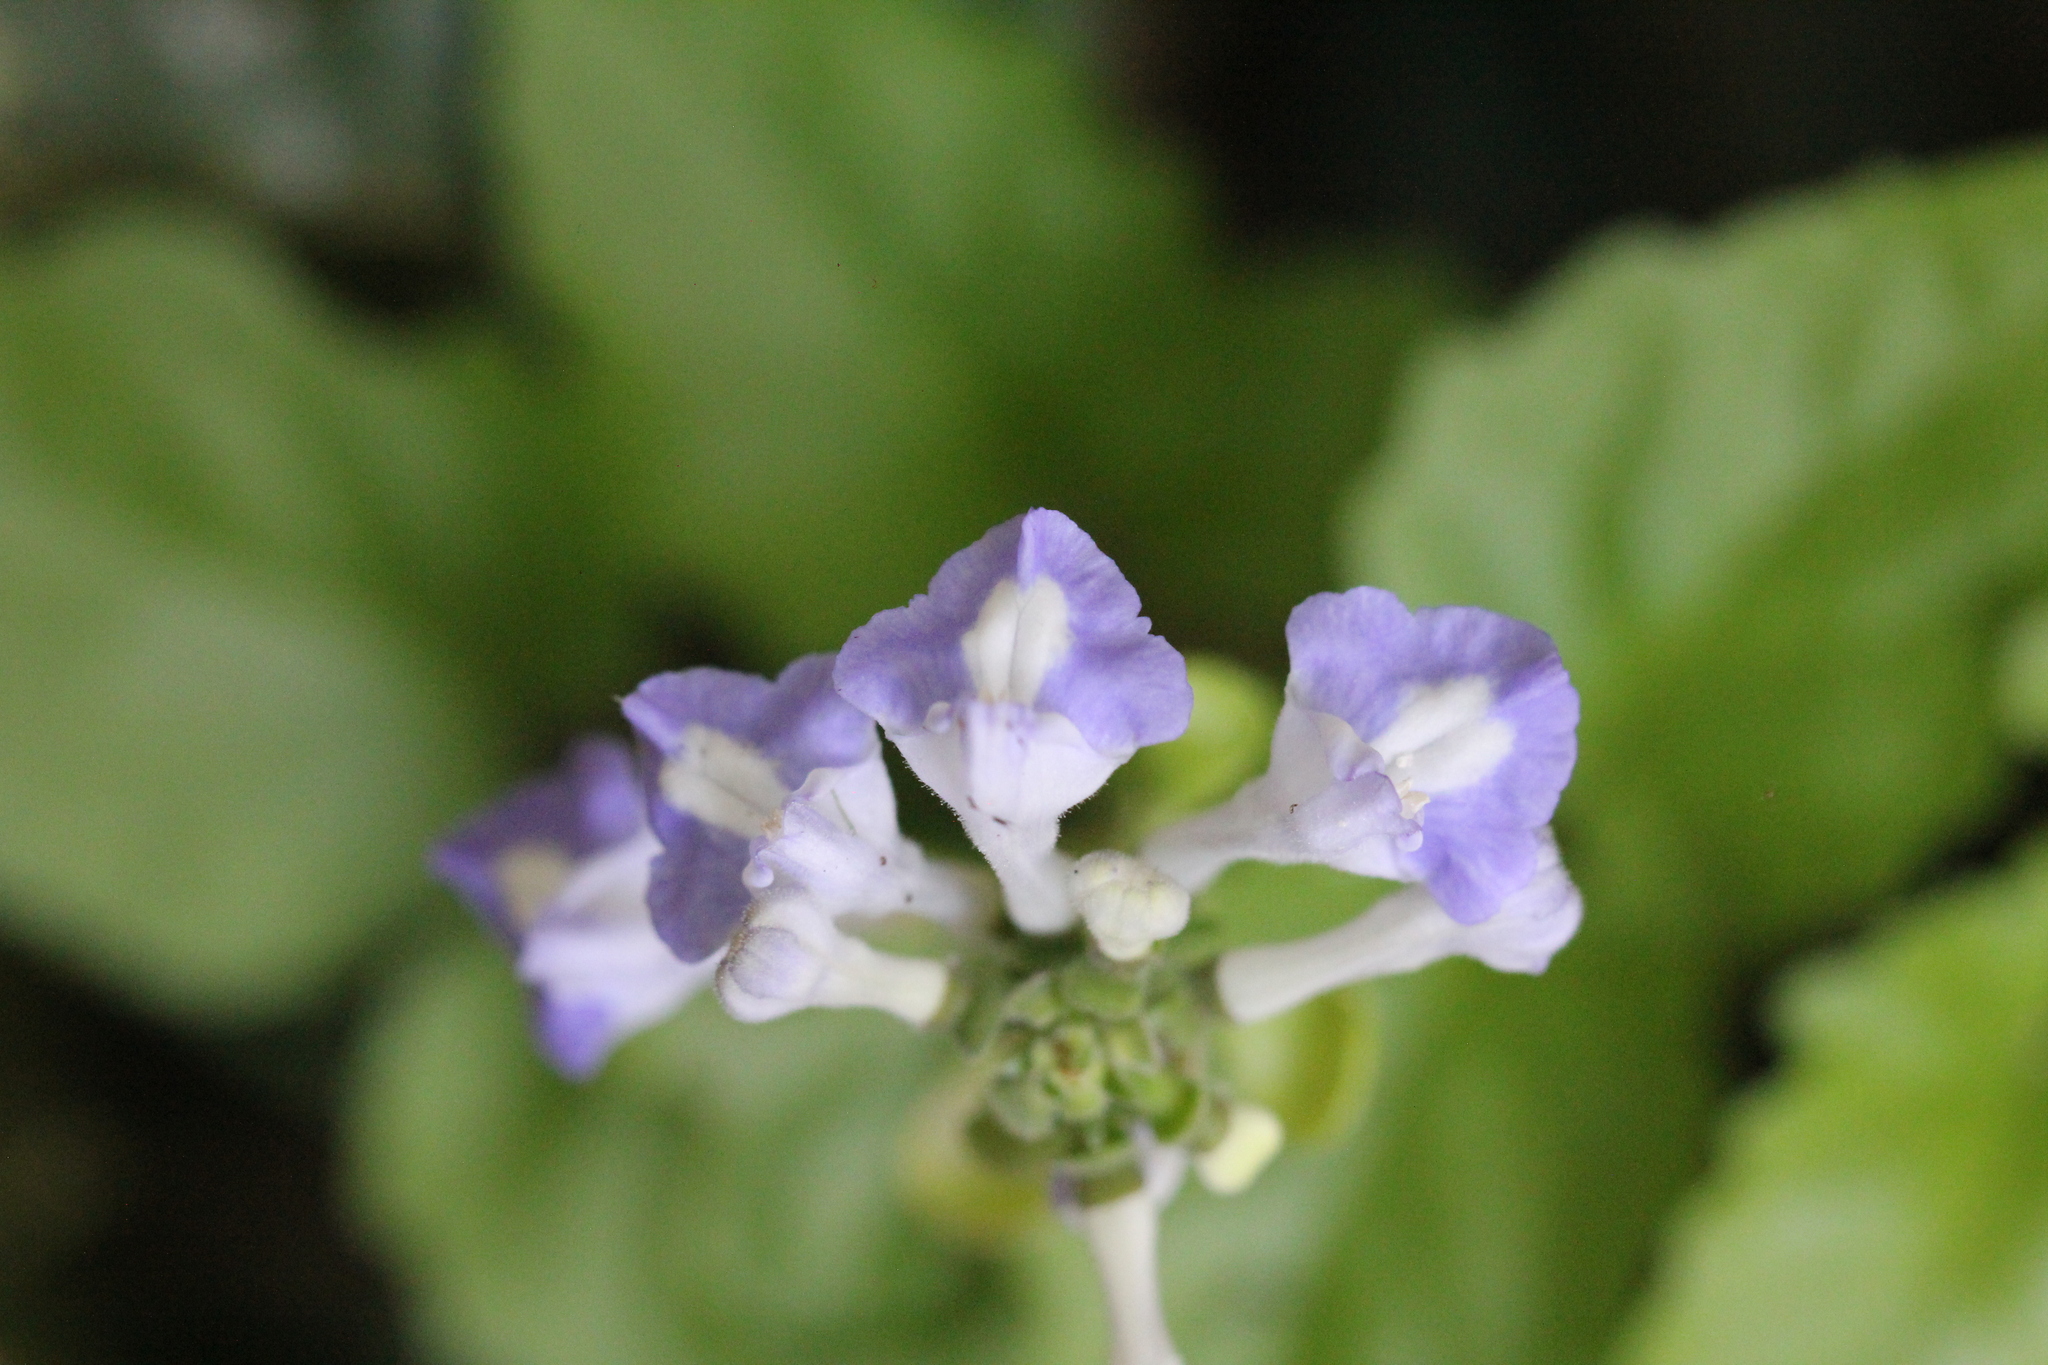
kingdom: Plantae
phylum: Tracheophyta
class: Magnoliopsida
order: Lamiales
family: Lamiaceae
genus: Scutellaria
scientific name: Scutellaria uliginosa
